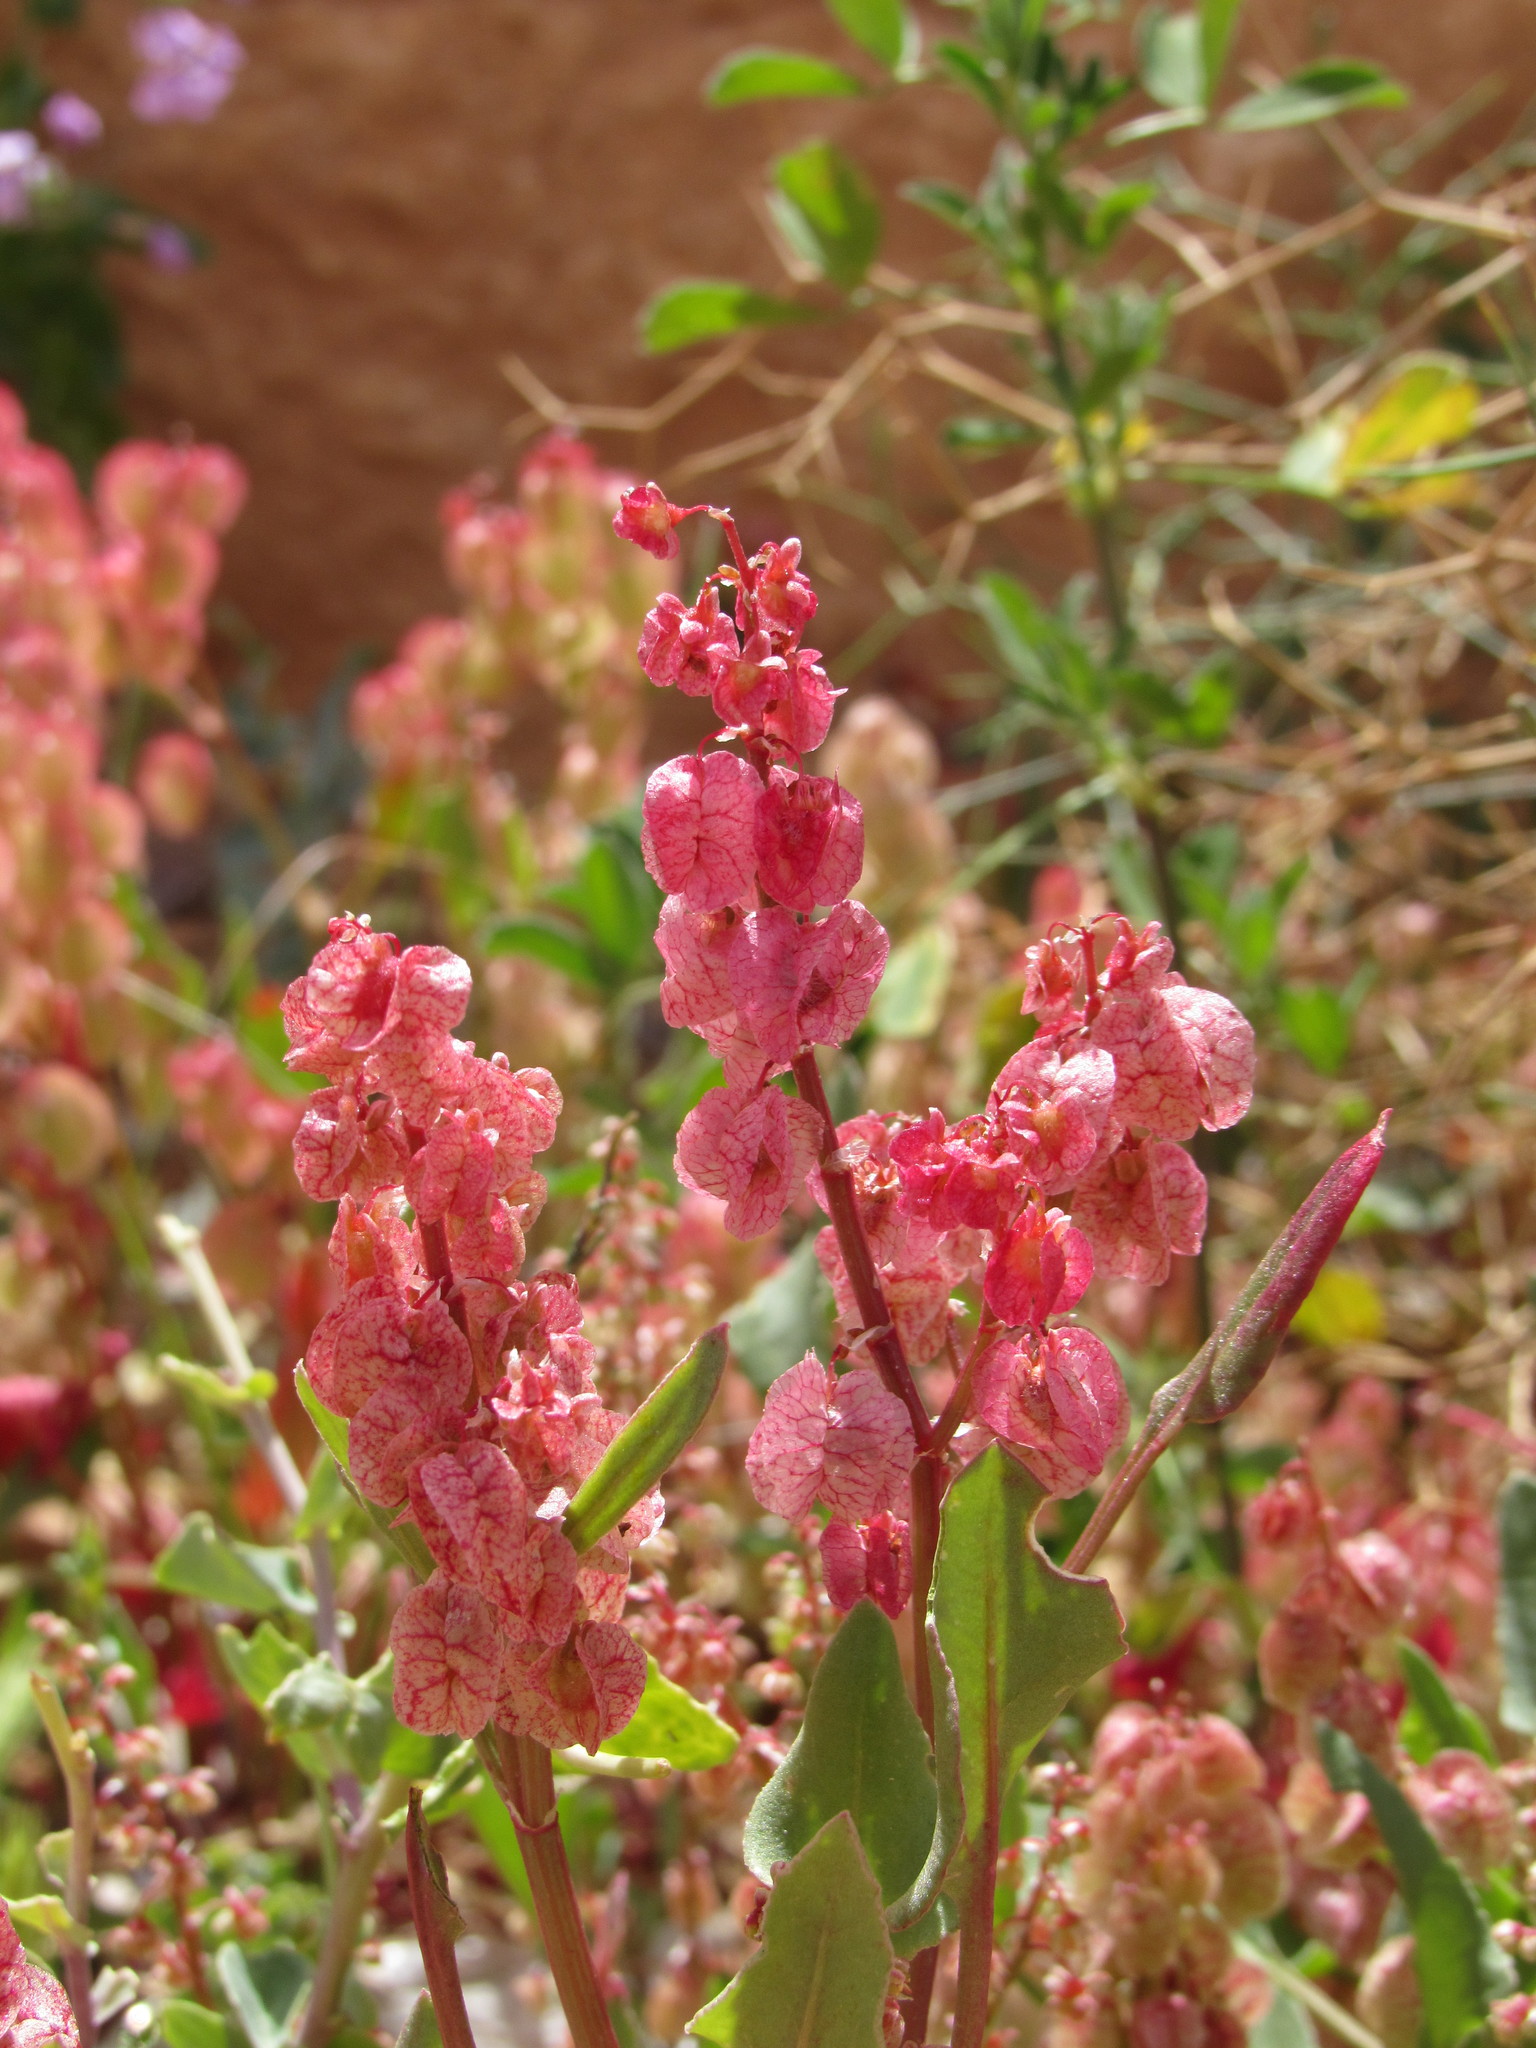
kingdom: Plantae
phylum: Tracheophyta
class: Magnoliopsida
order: Caryophyllales
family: Polygonaceae
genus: Rumex
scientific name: Rumex vesicarius
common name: Bladder dock
